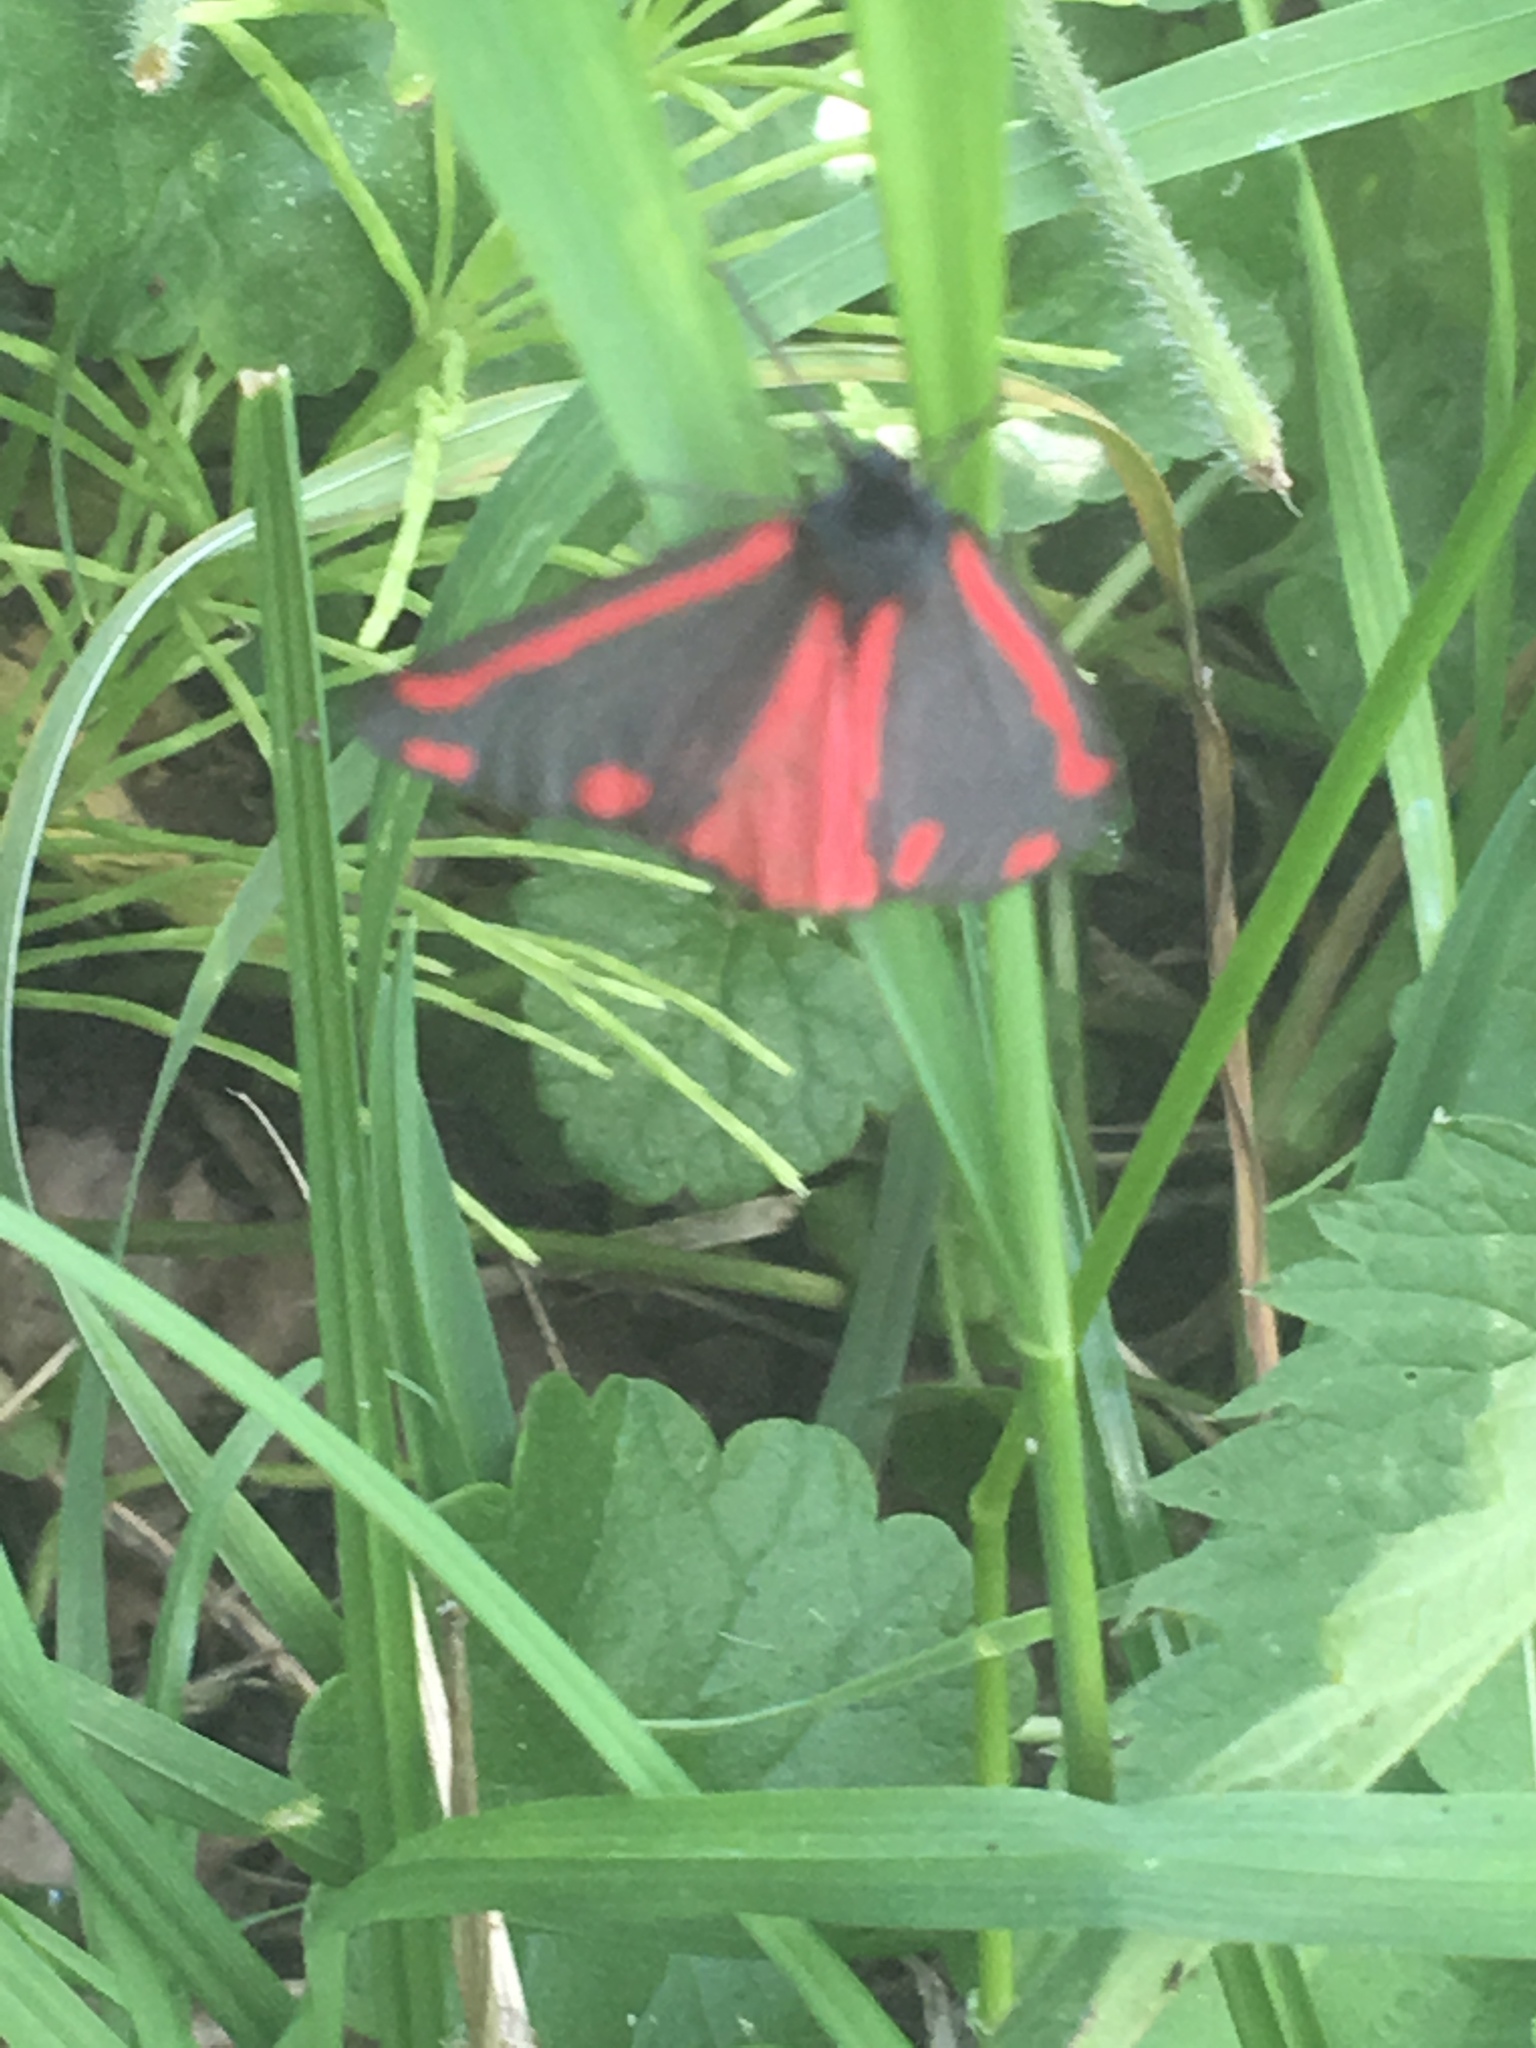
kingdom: Animalia
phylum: Arthropoda
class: Insecta
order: Lepidoptera
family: Erebidae
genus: Tyria
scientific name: Tyria jacobaeae
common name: Cinnabar
